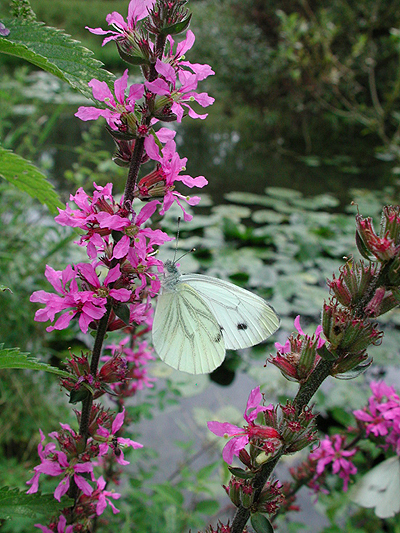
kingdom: Animalia
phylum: Arthropoda
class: Insecta
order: Lepidoptera
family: Pieridae
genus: Pieris
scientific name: Pieris napi
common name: Green-veined white
